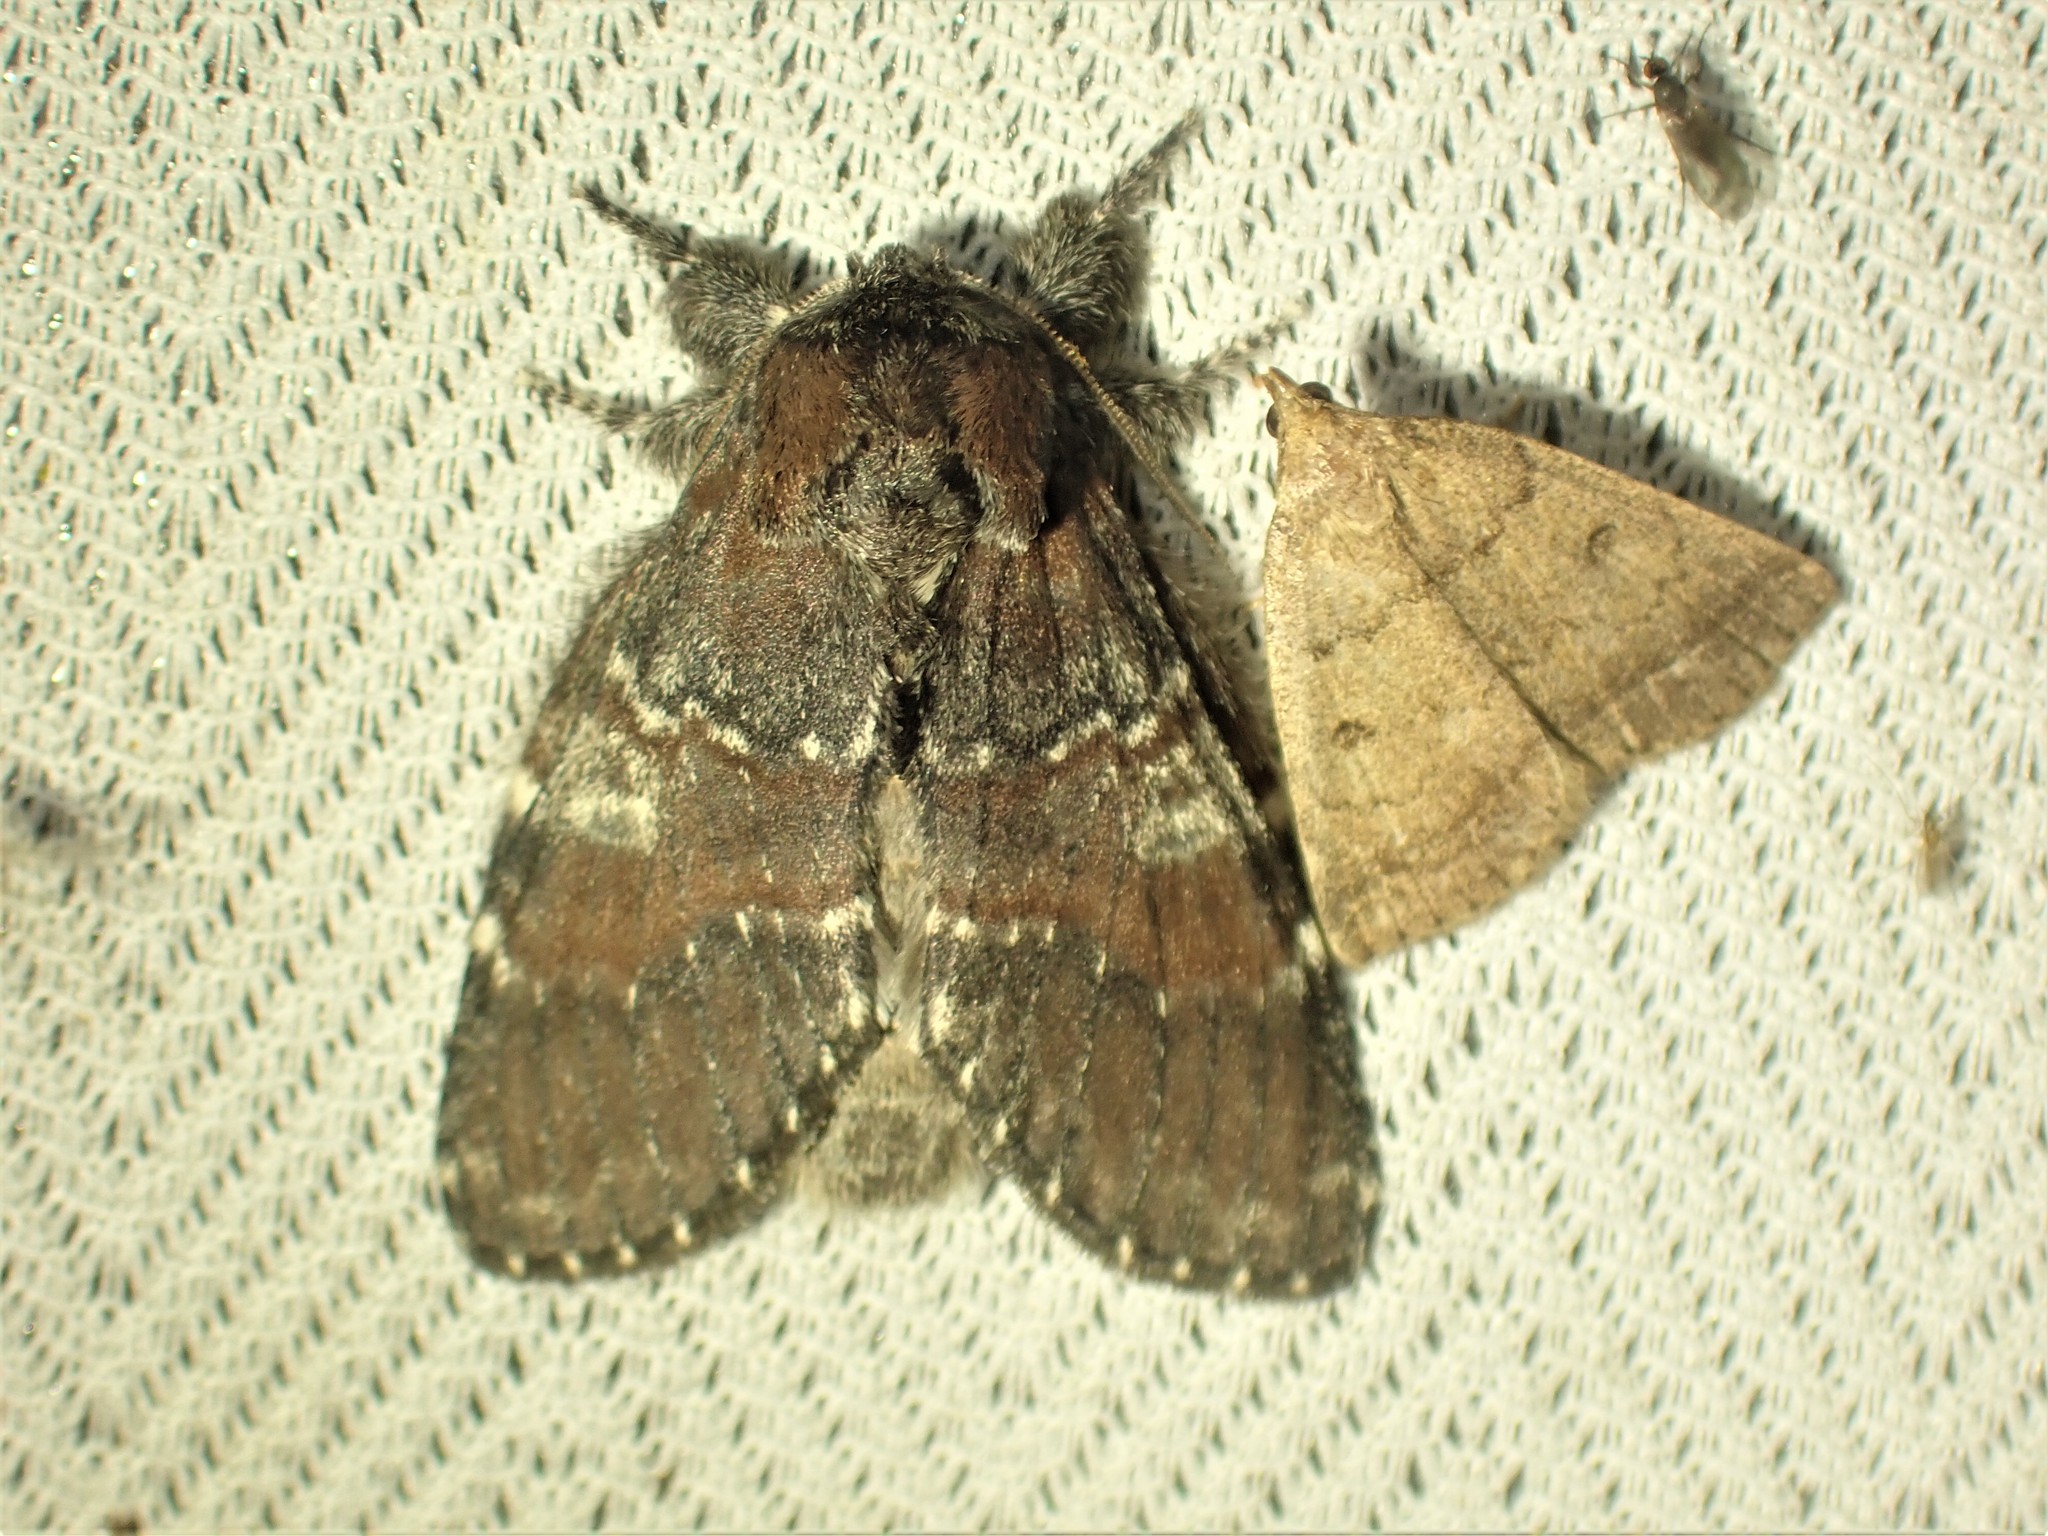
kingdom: Animalia
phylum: Arthropoda
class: Insecta
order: Lepidoptera
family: Notodontidae
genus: Peridea
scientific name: Peridea ferruginea
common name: Chocolate prominent
